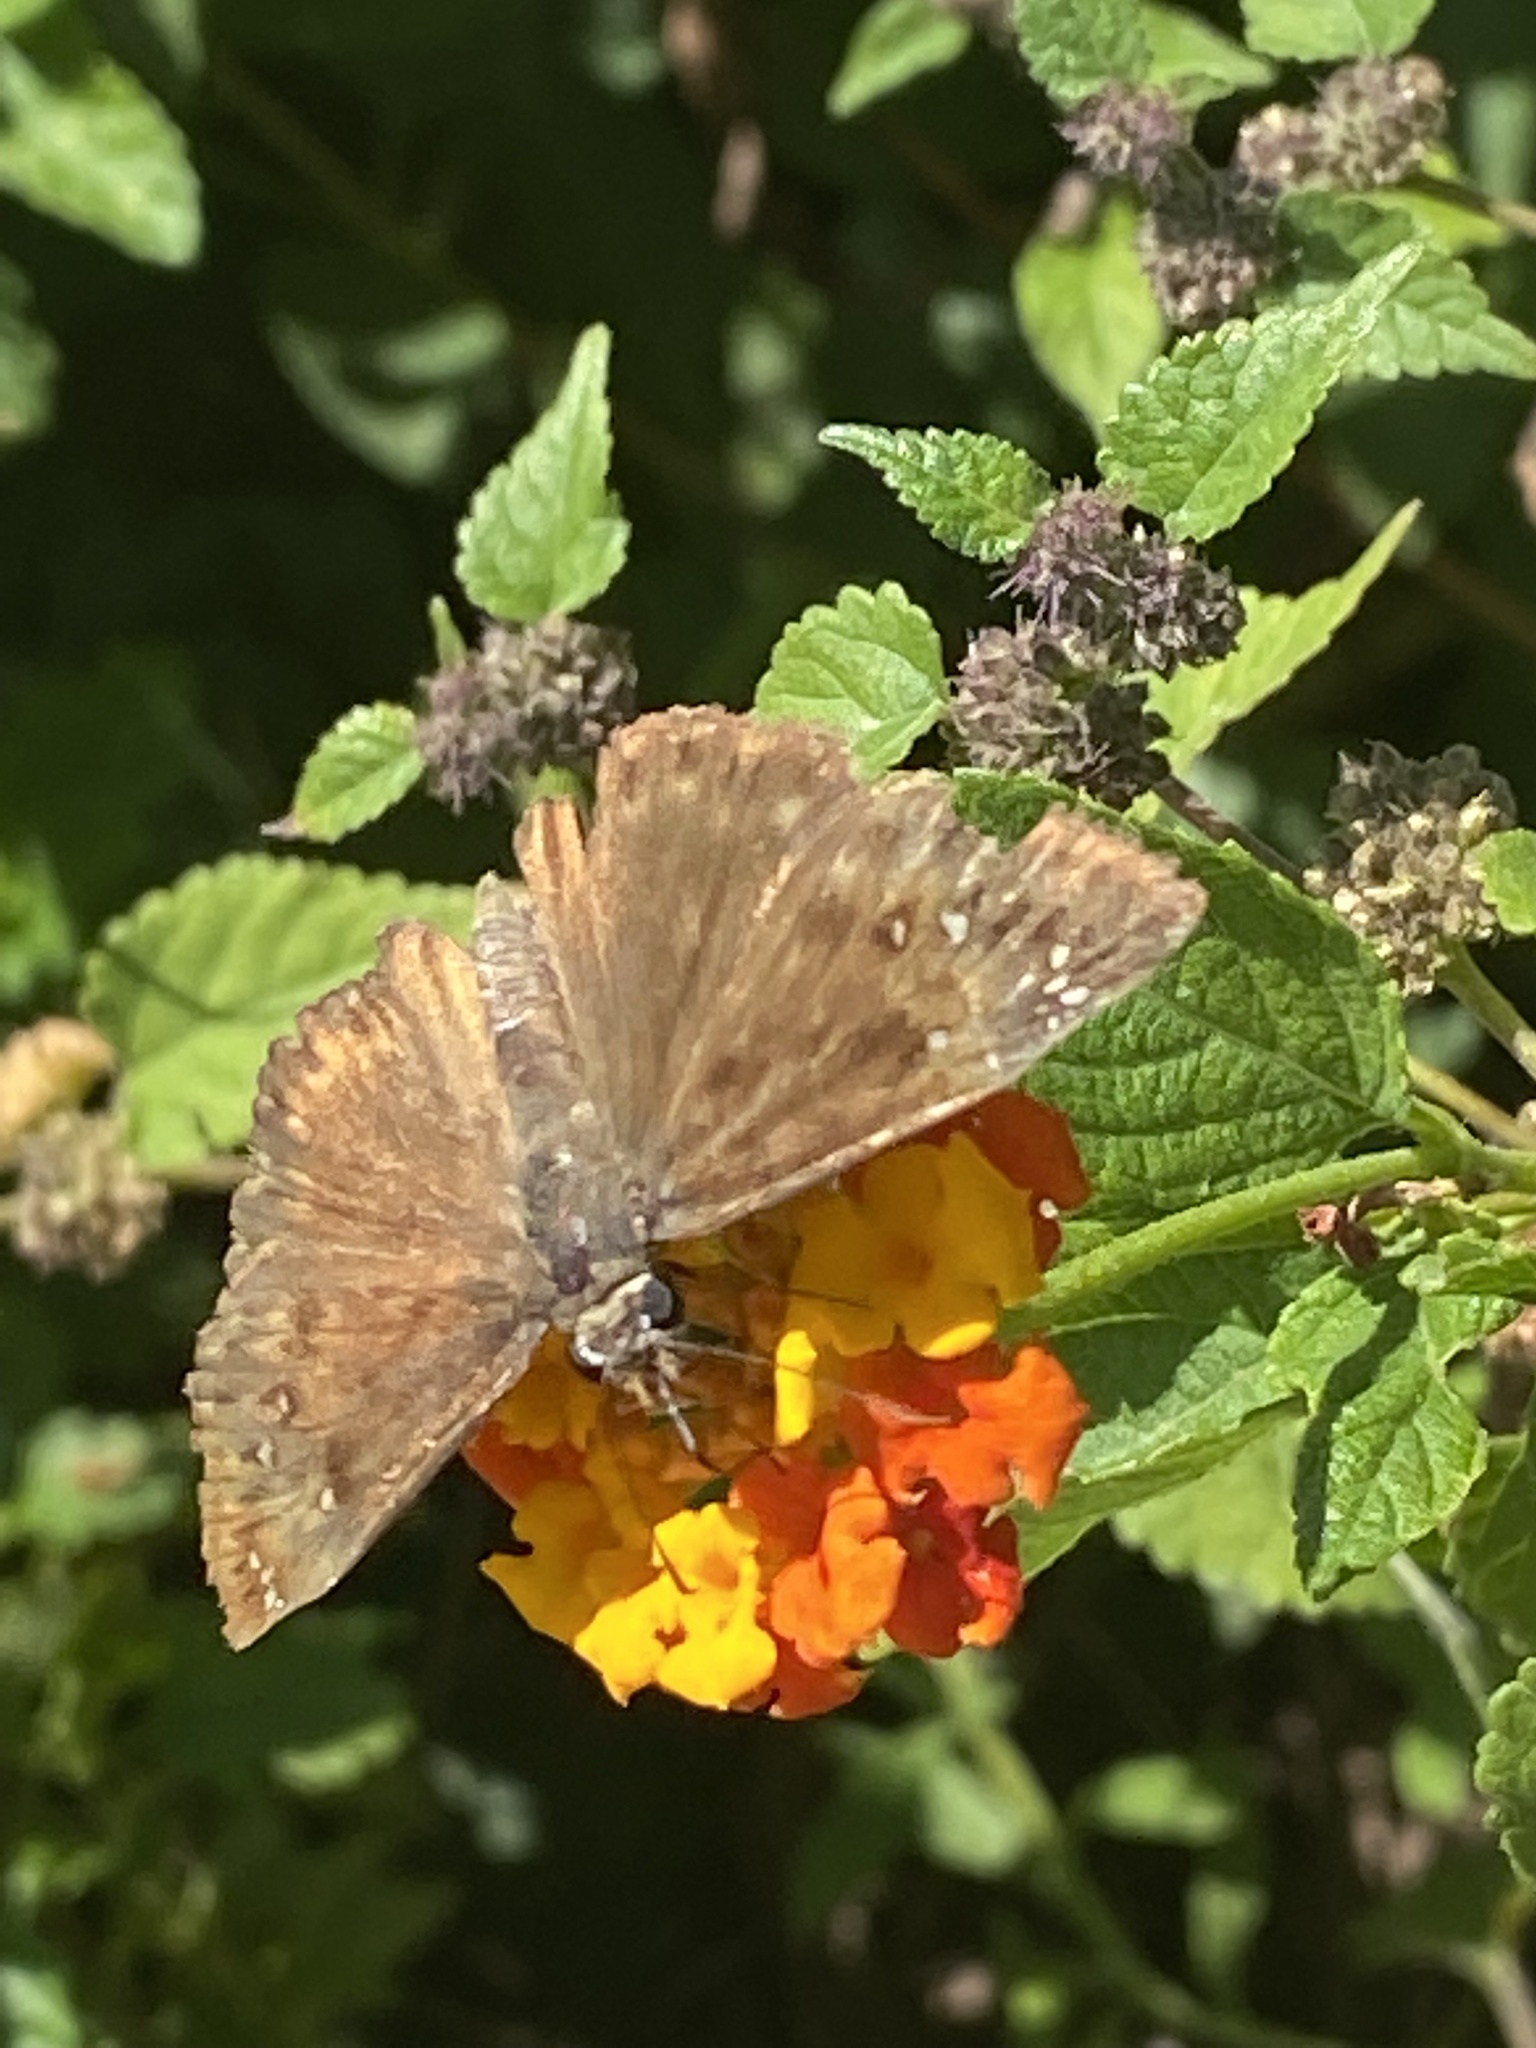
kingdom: Animalia
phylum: Arthropoda
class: Insecta
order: Lepidoptera
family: Hesperiidae
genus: Erynnis
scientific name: Erynnis horatius
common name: Horace's duskywing
